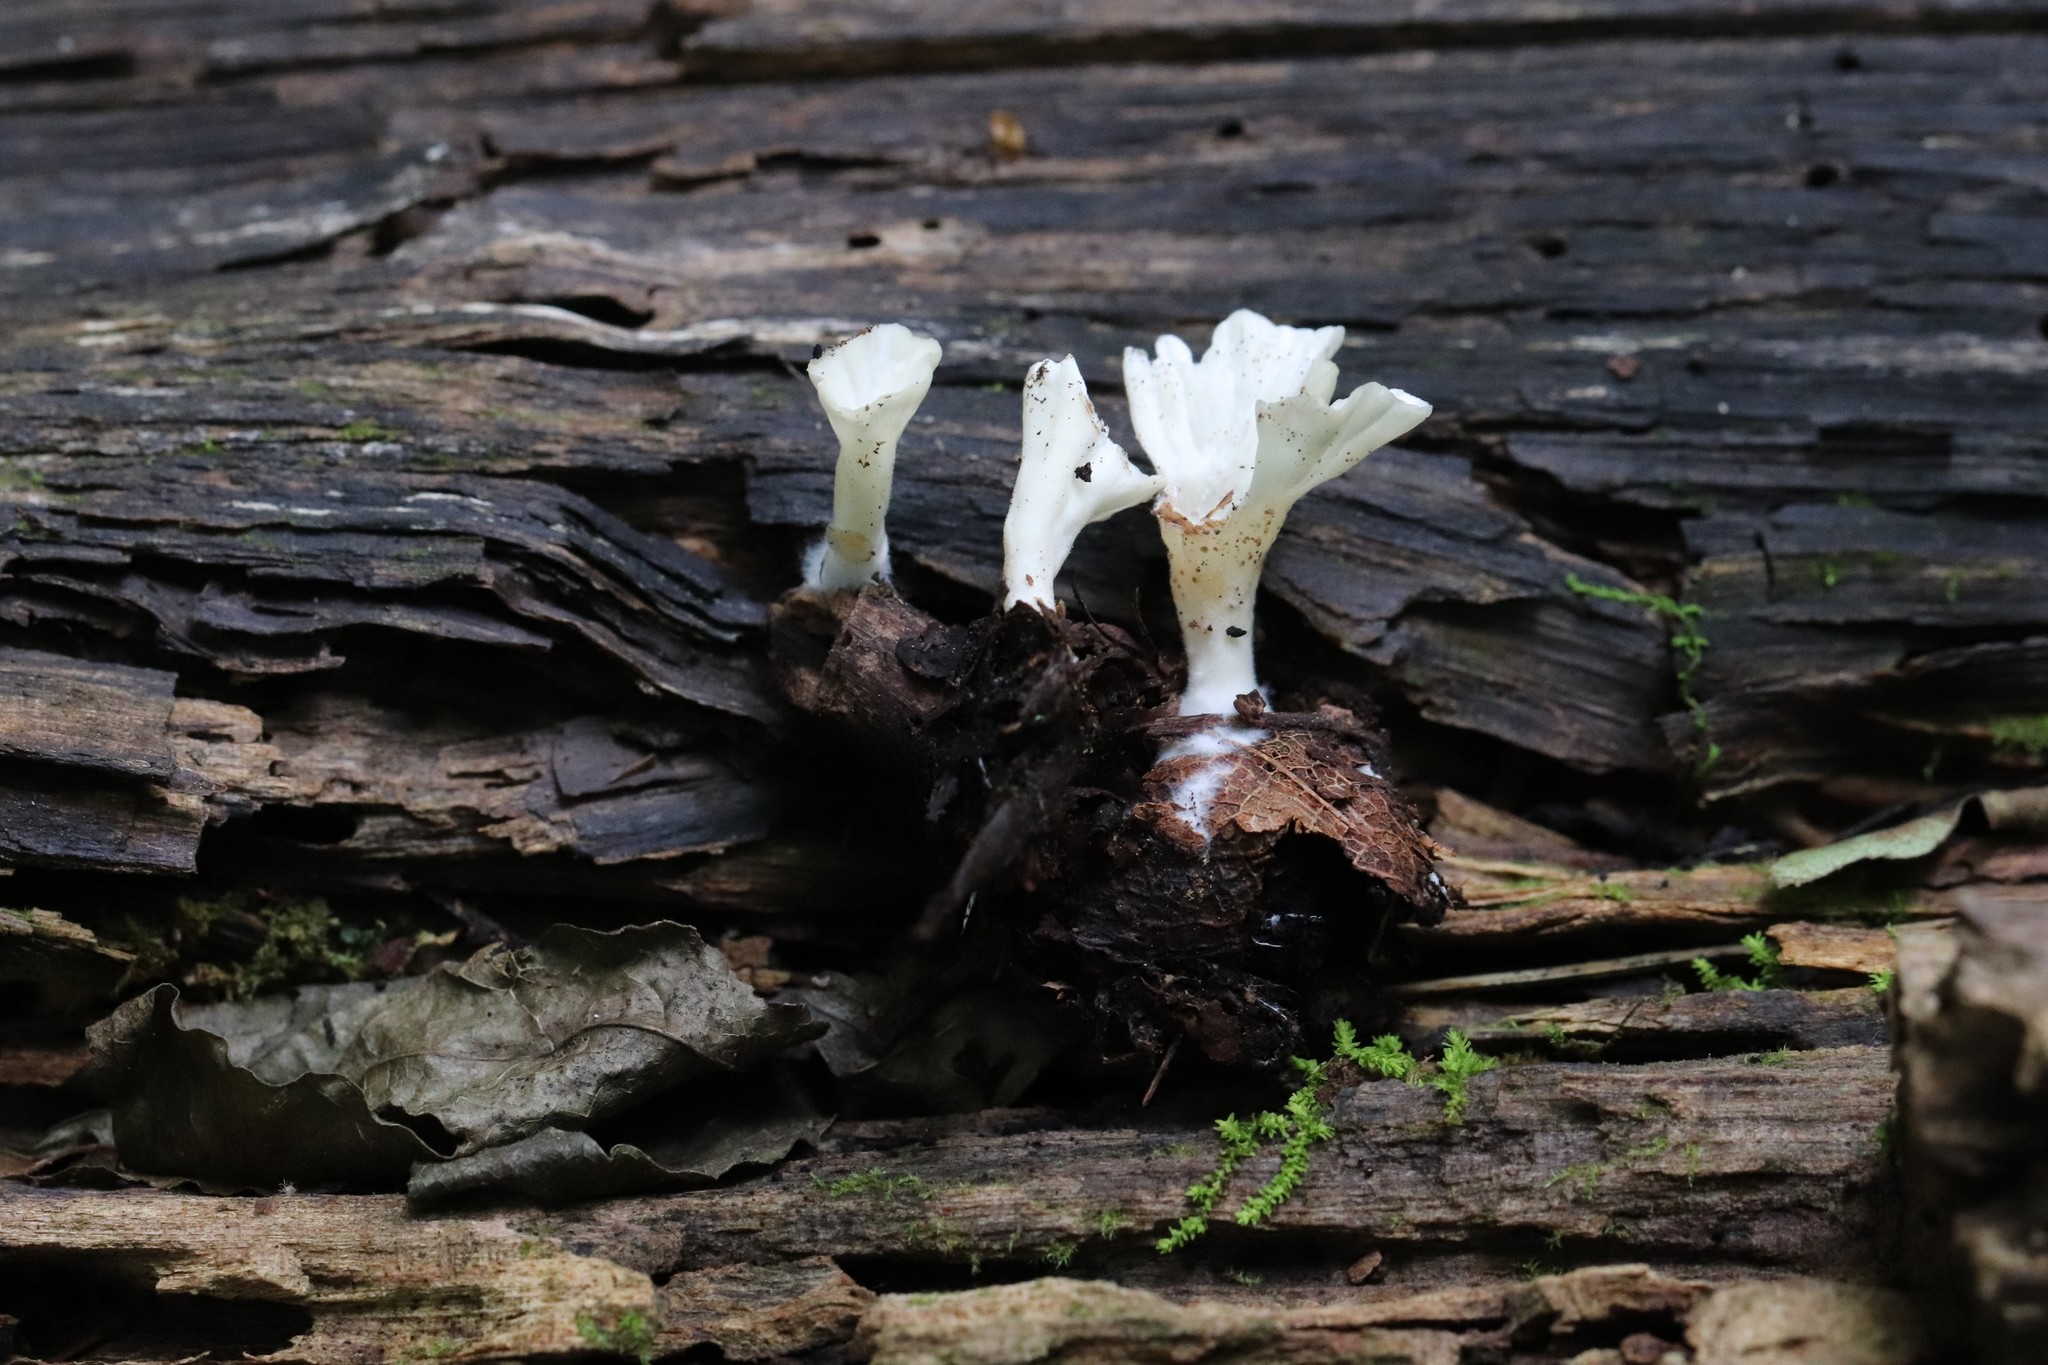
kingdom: Fungi
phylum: Basidiomycota
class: Agaricomycetes
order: Hymenochaetales
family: Rickenellaceae
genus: Cotylidia
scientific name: Cotylidia diaphana
